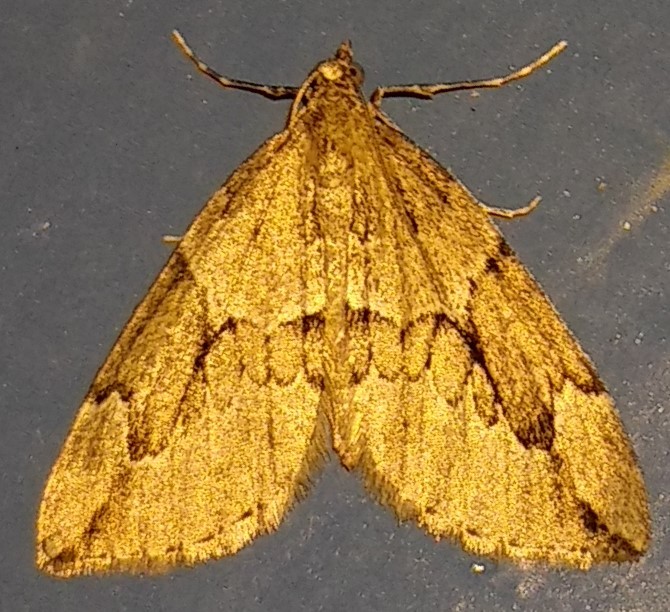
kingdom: Animalia
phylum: Arthropoda
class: Insecta
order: Lepidoptera
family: Geometridae
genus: Thera
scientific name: Thera juniperata
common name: Juniper carpet
